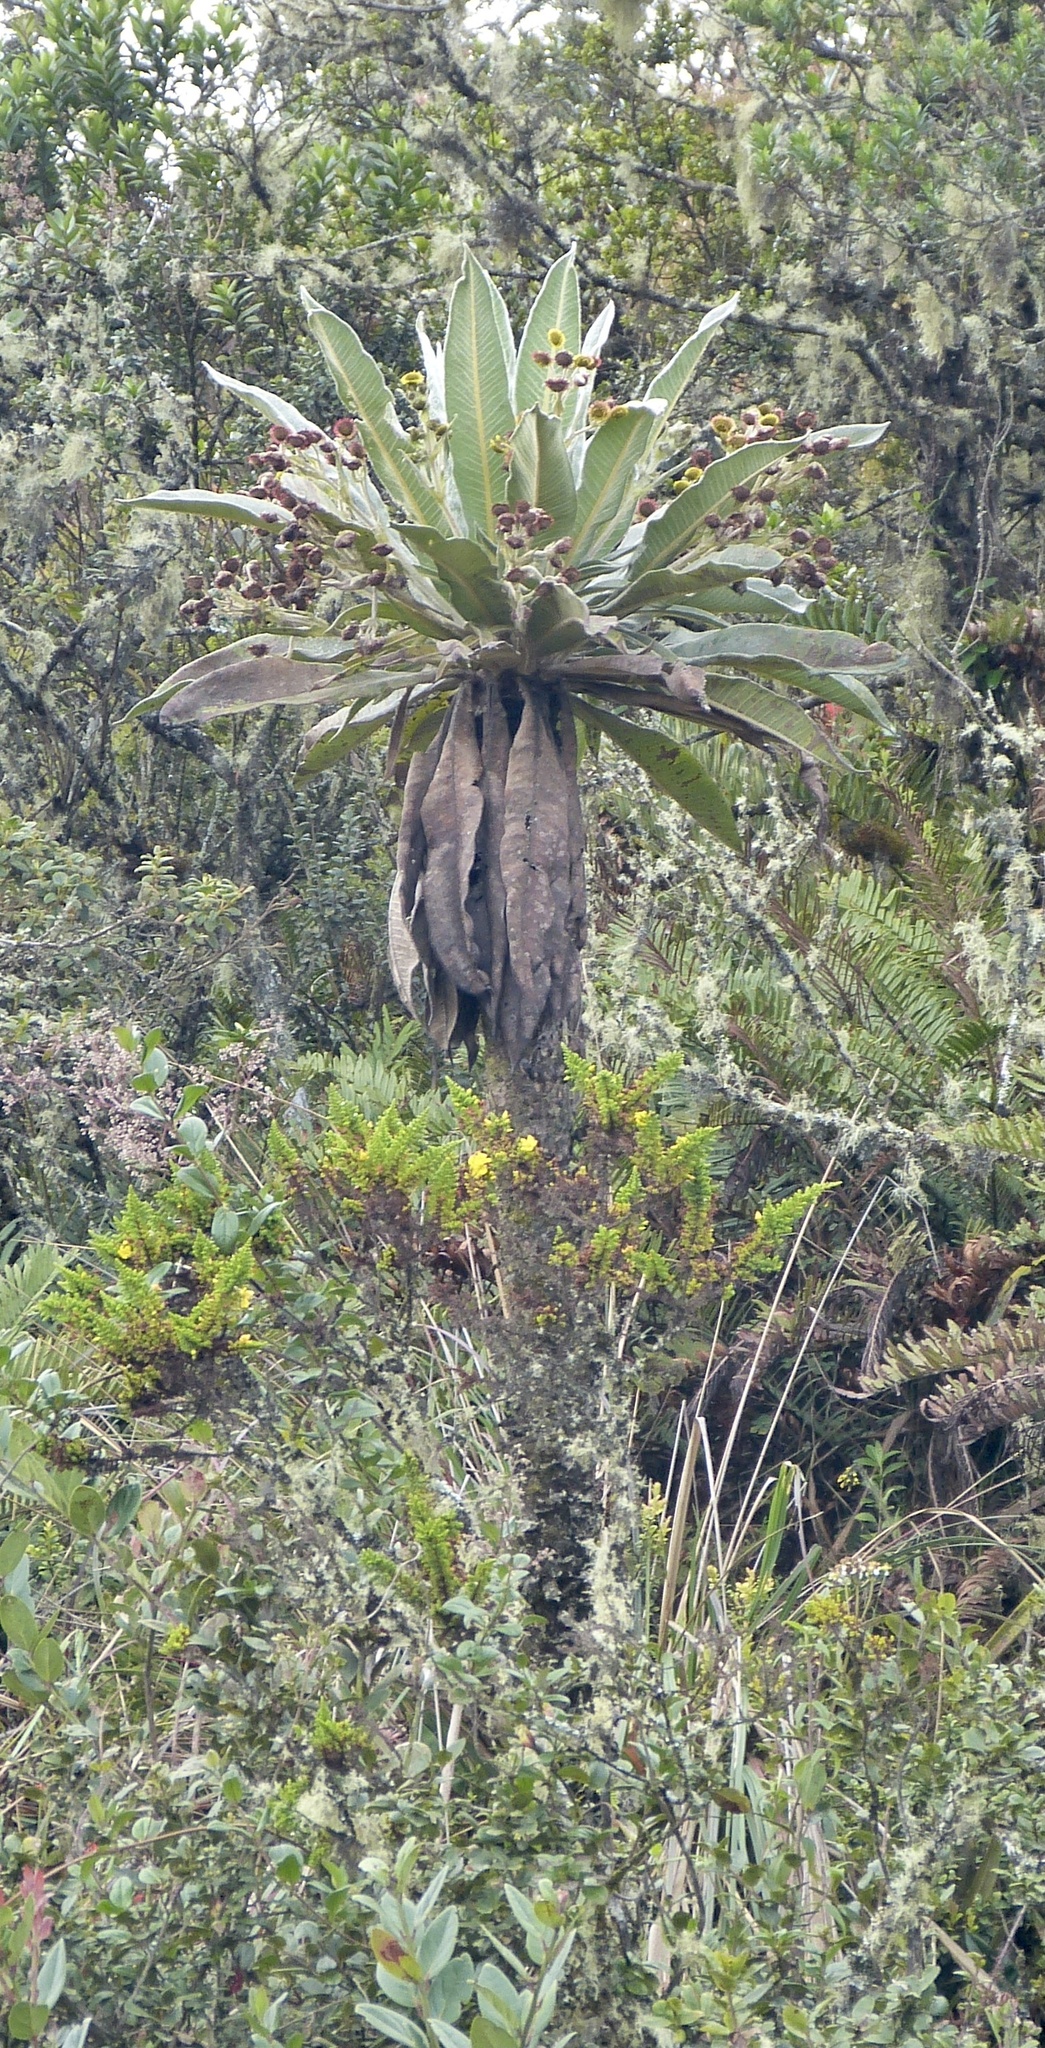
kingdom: Plantae
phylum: Tracheophyta
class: Magnoliopsida
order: Asterales
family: Asteraceae
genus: Espeletia
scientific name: Espeletia uribei
